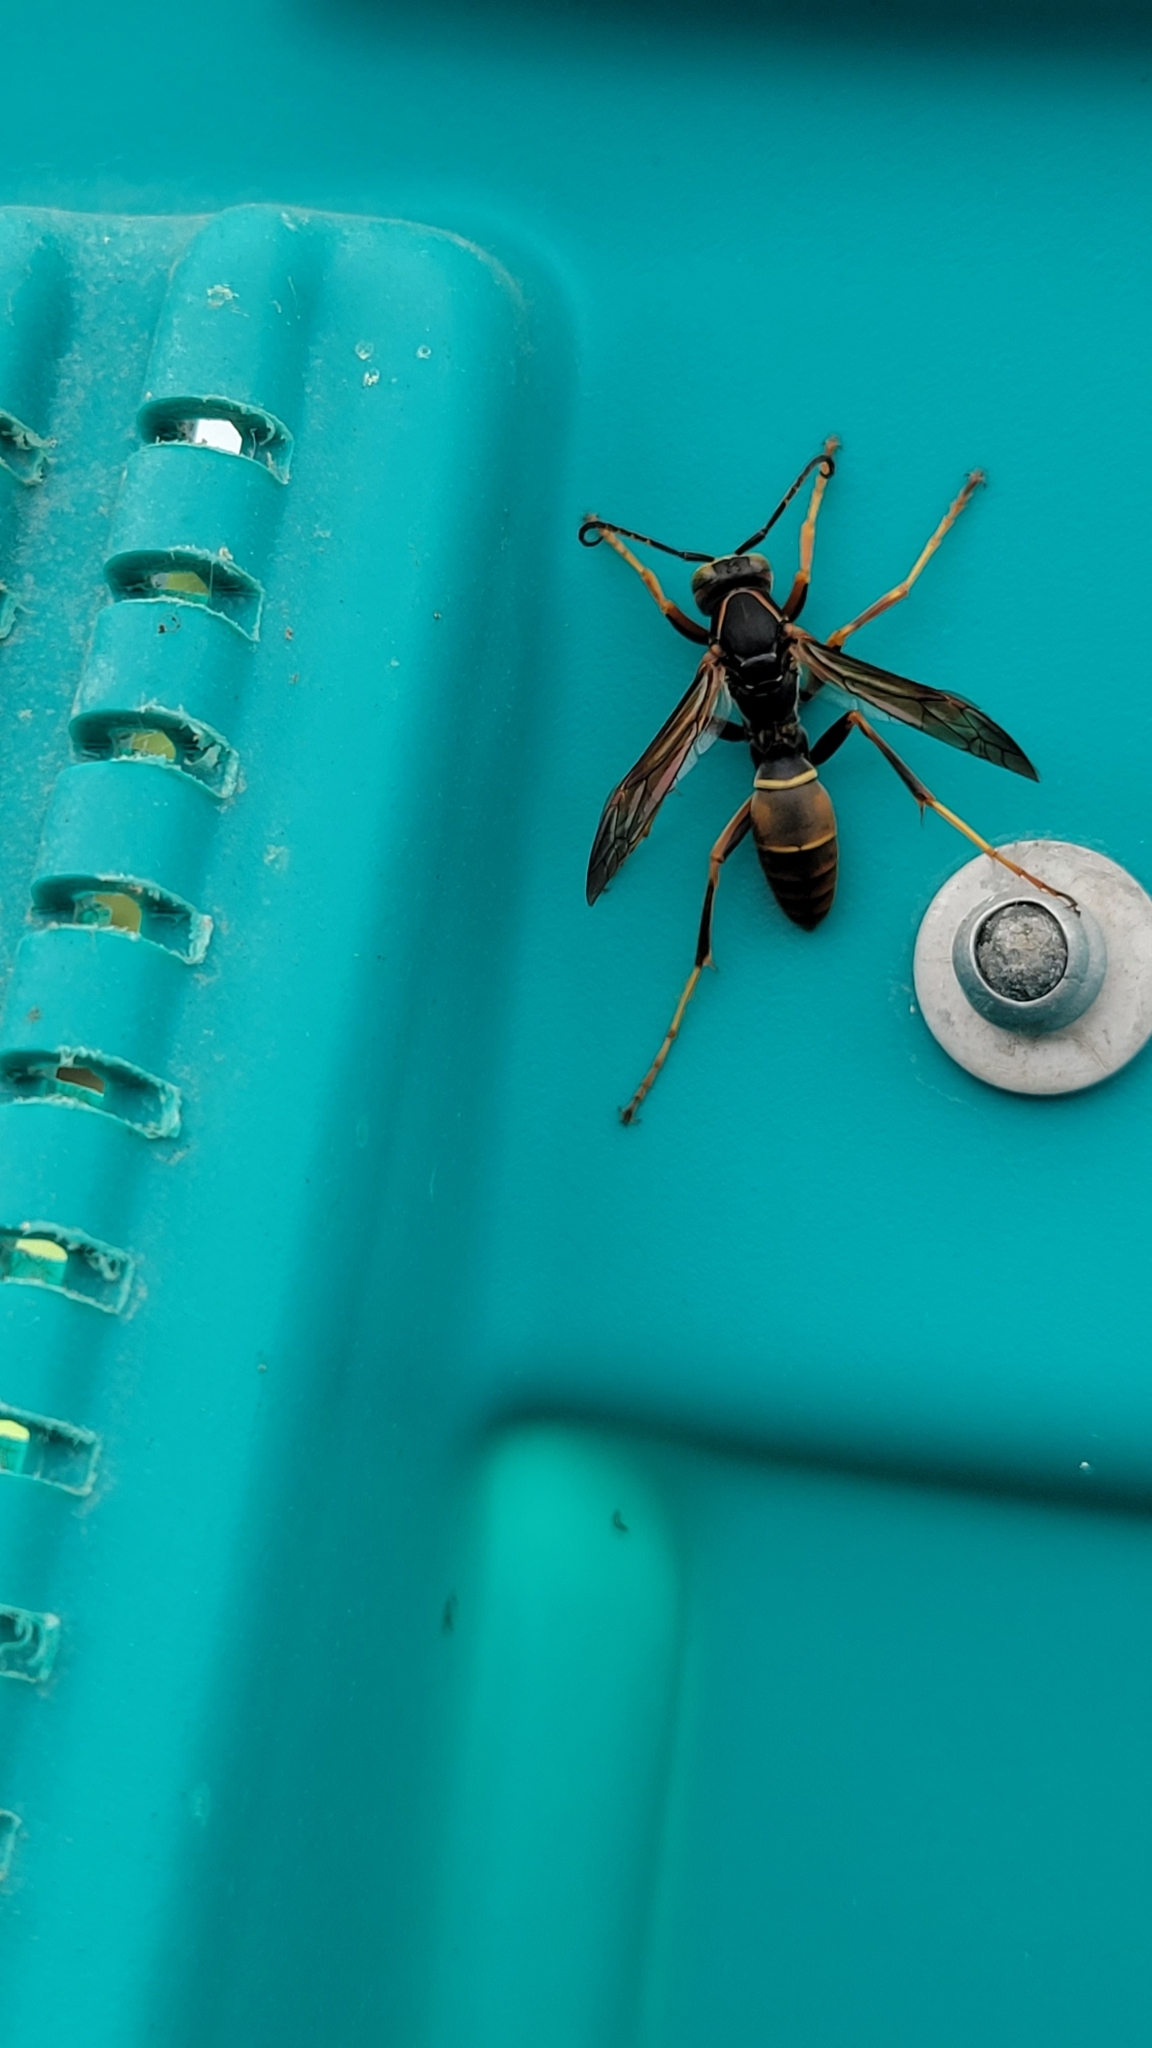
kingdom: Animalia
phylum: Arthropoda
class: Insecta
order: Hymenoptera
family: Eumenidae
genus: Polistes
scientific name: Polistes fuscatus
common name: Dark paper wasp
